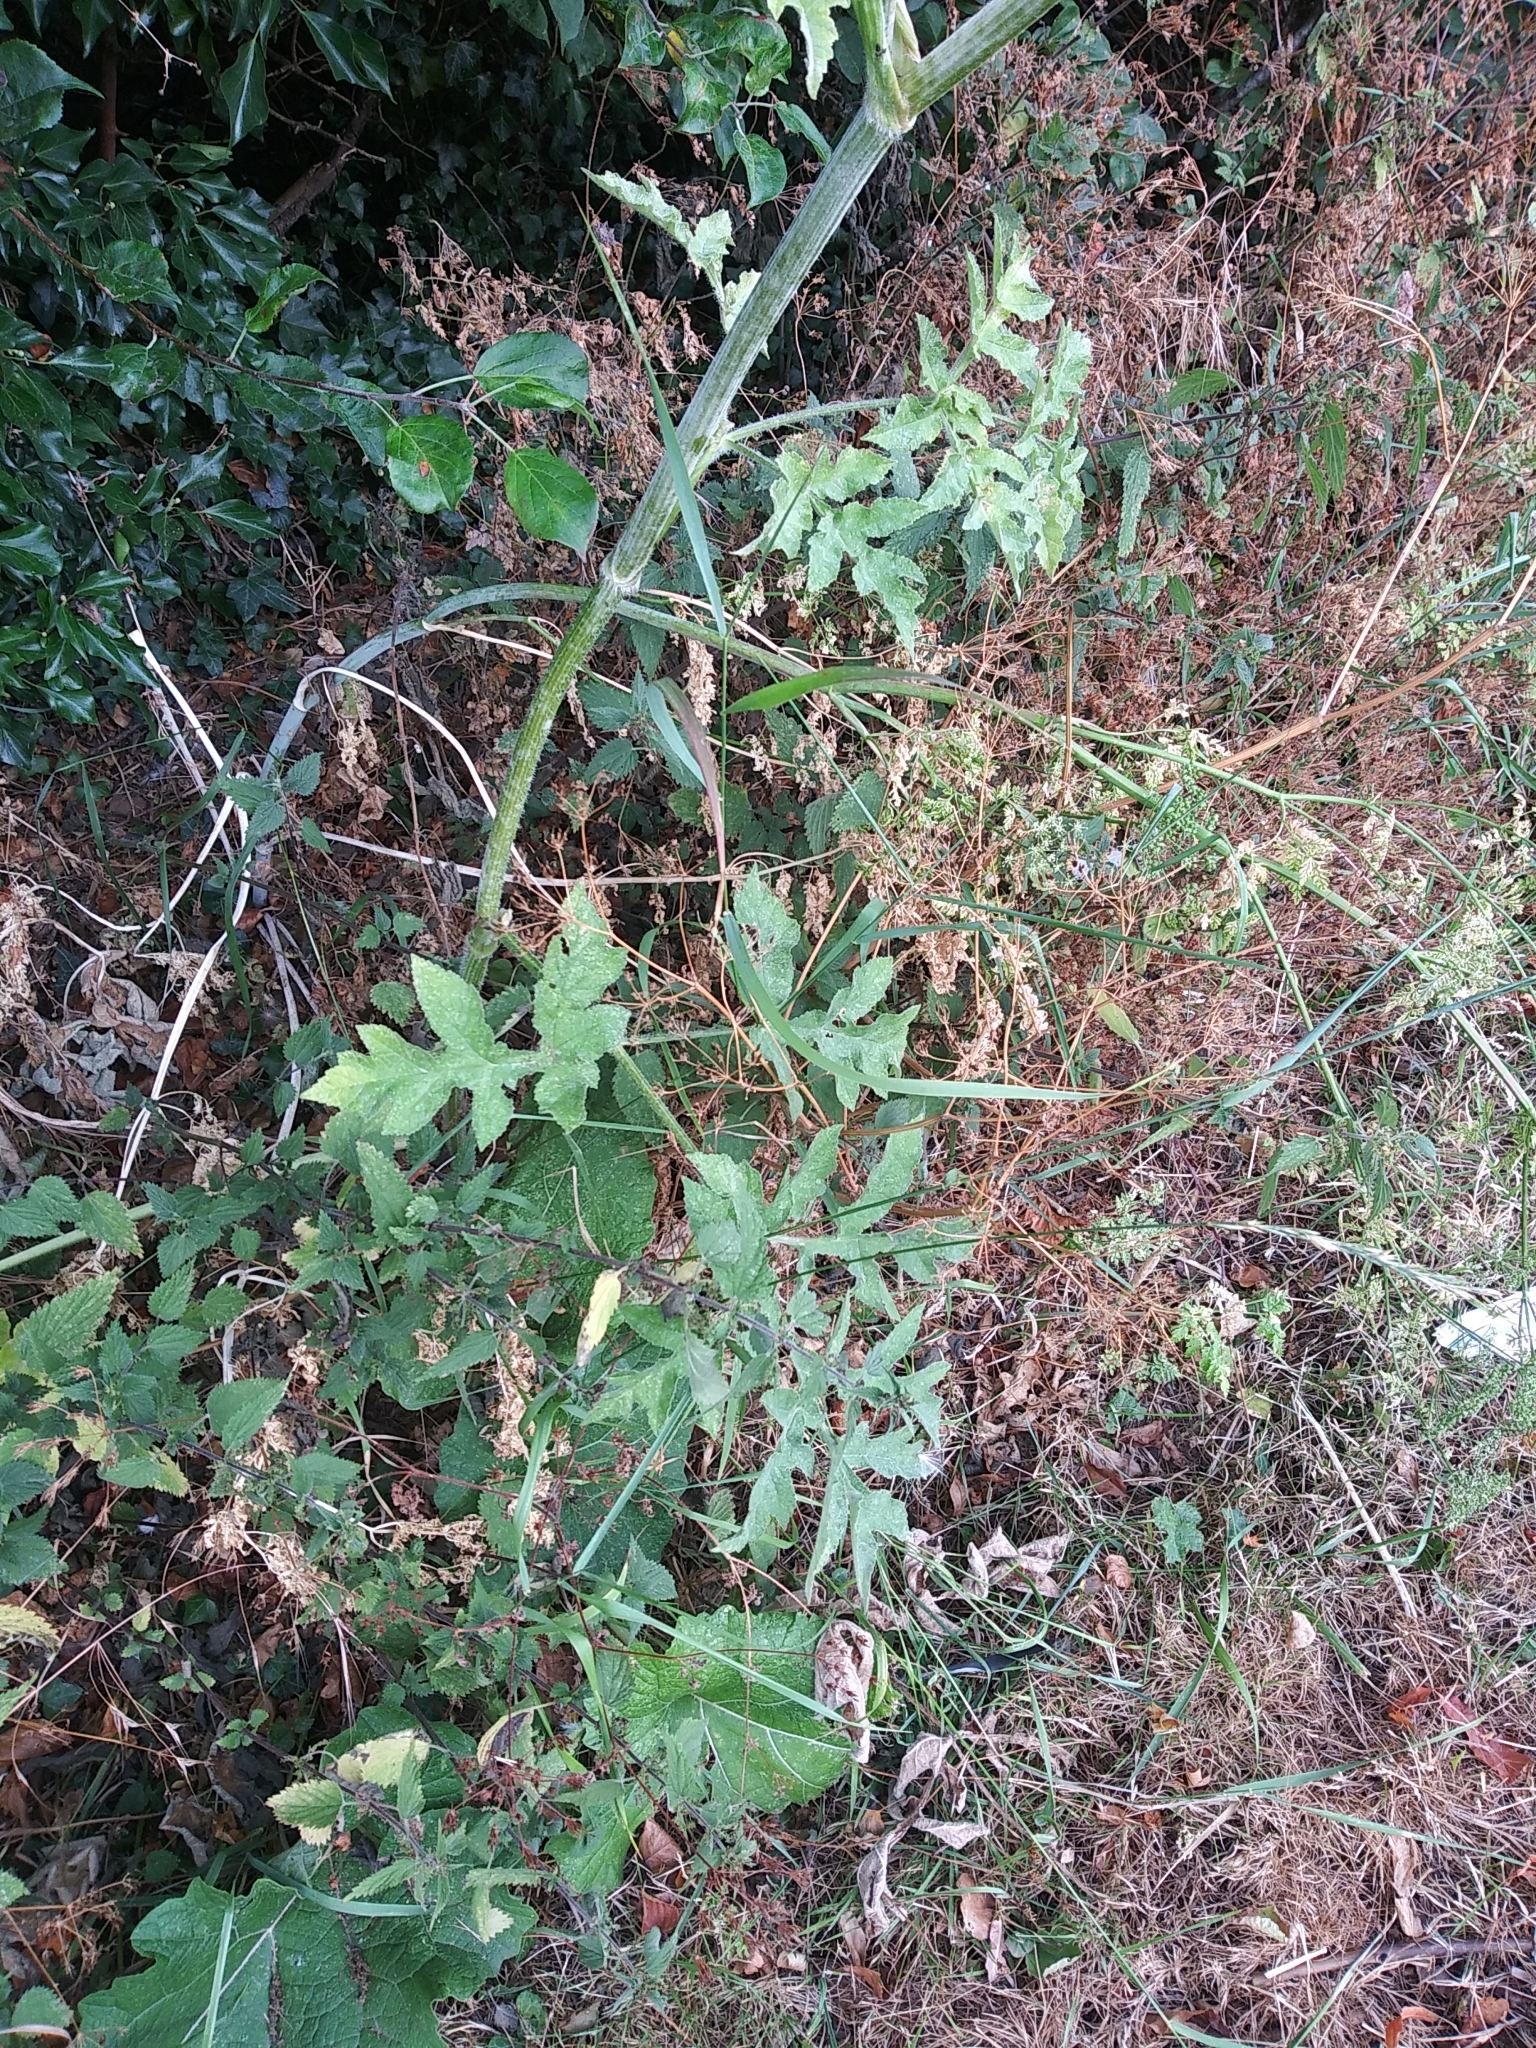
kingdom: Plantae
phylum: Tracheophyta
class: Magnoliopsida
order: Apiales
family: Apiaceae
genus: Heracleum
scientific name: Heracleum sphondylium
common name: Hogweed
